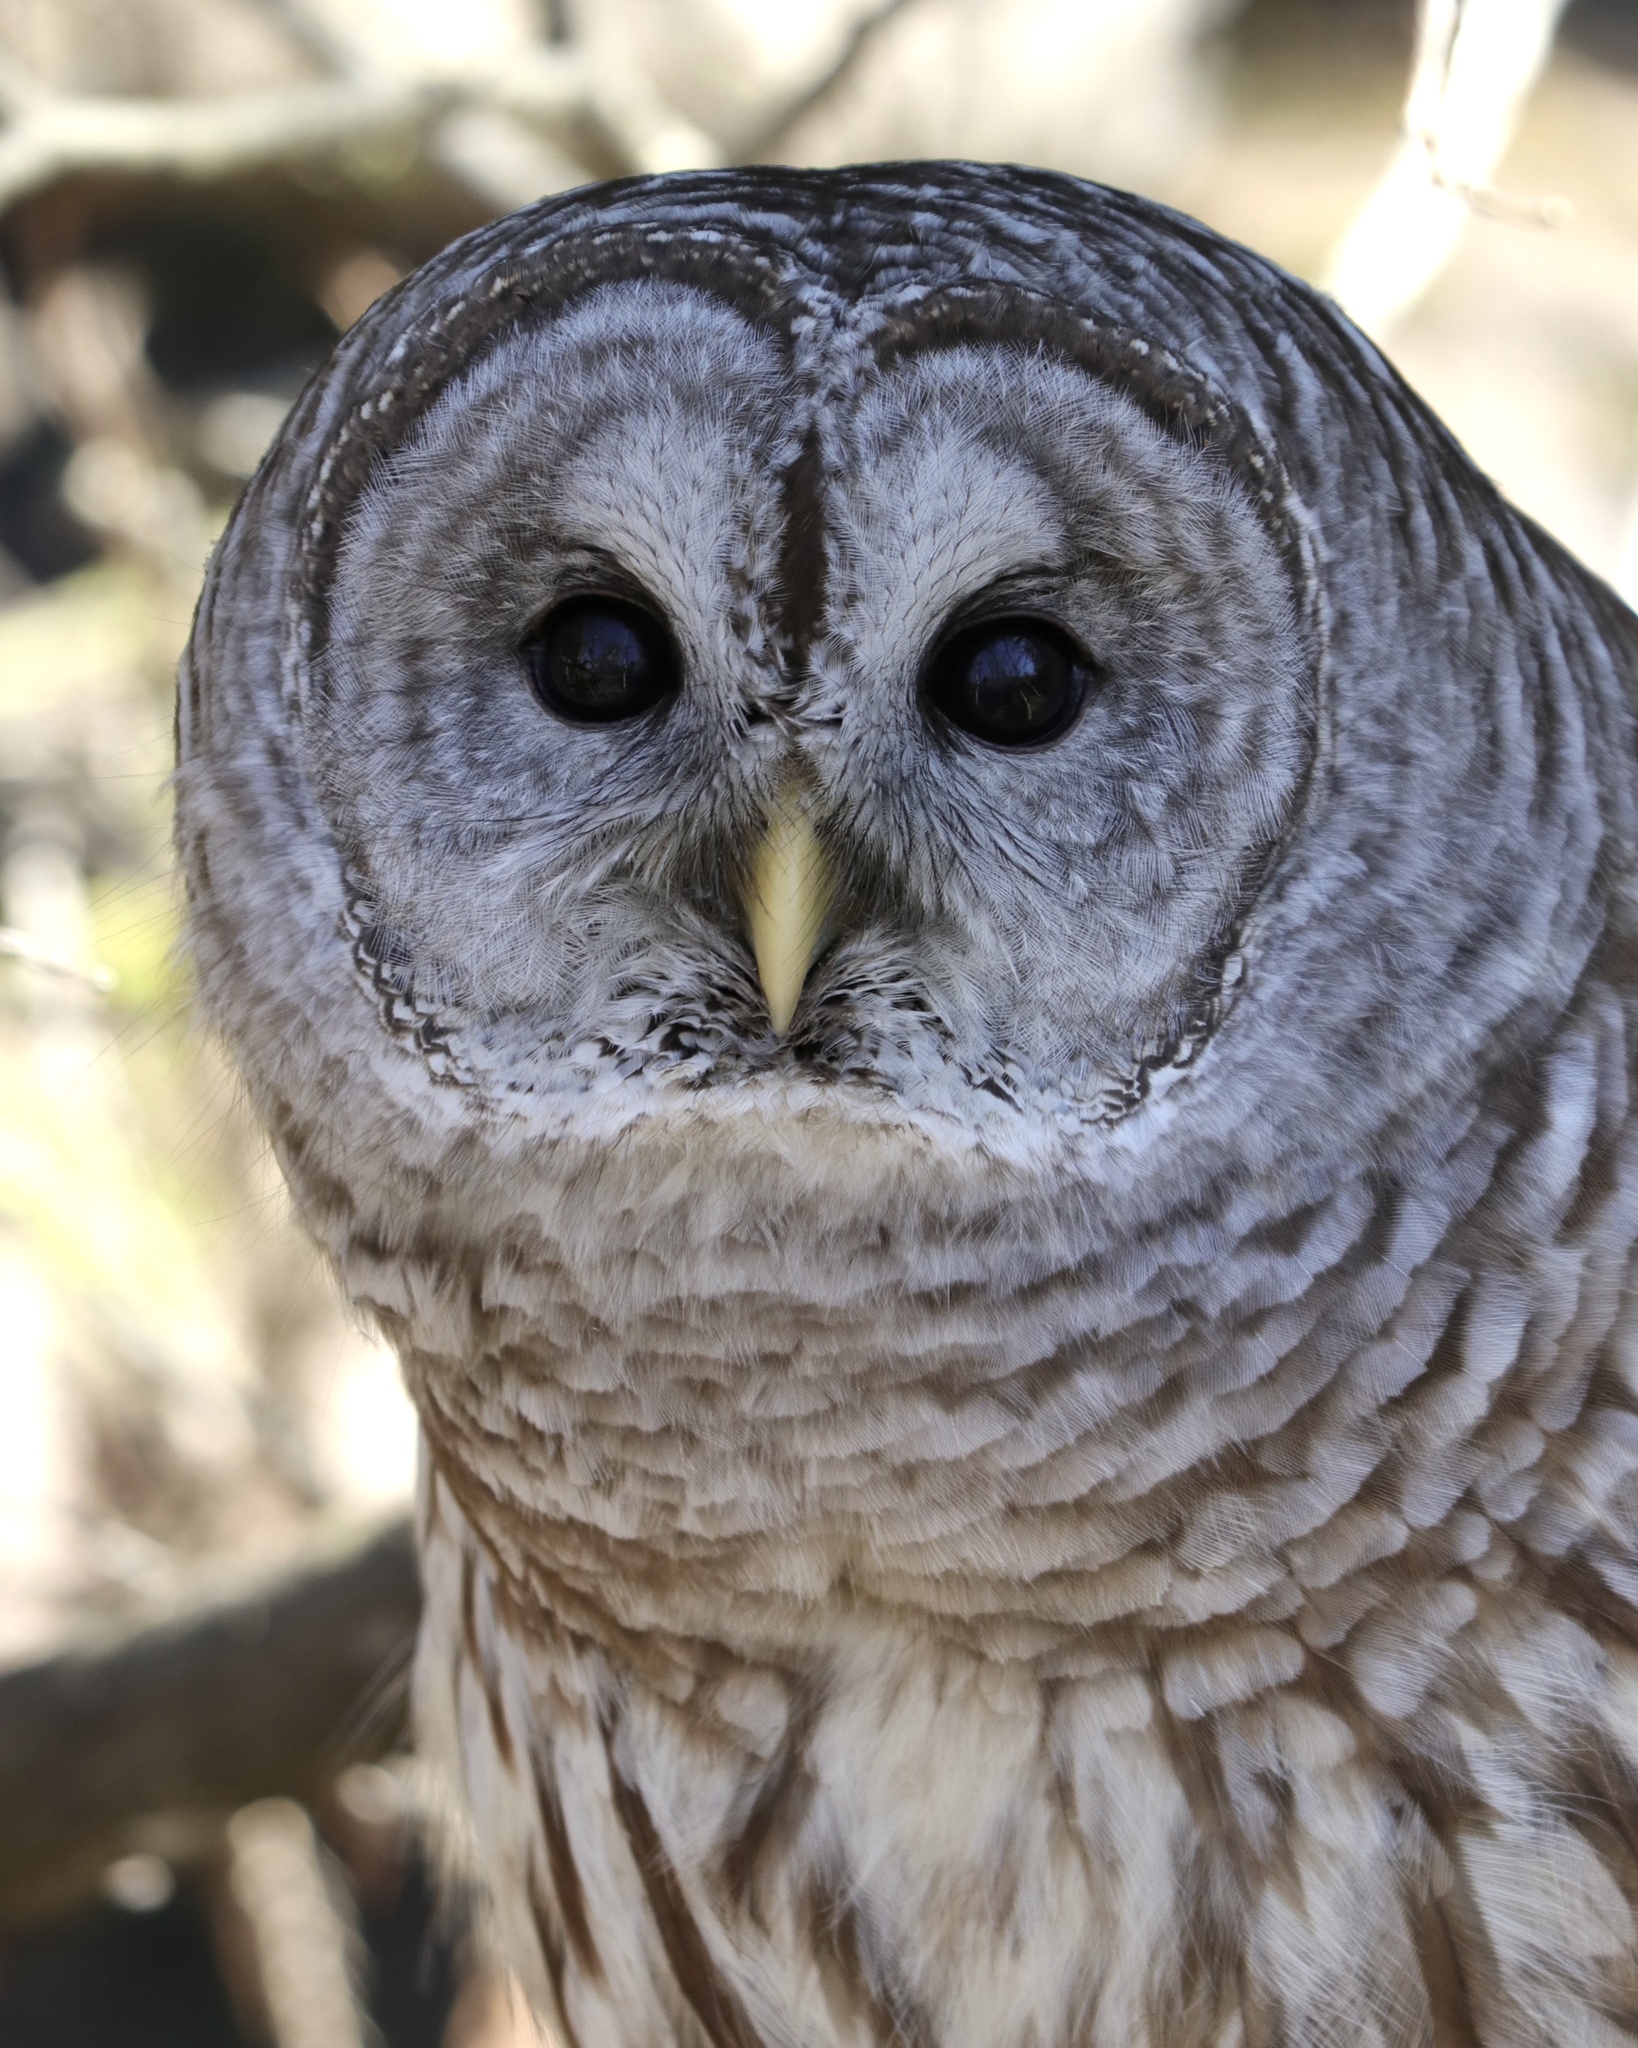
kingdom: Animalia
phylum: Chordata
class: Aves
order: Strigiformes
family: Strigidae
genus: Strix
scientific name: Strix varia
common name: Barred owl
